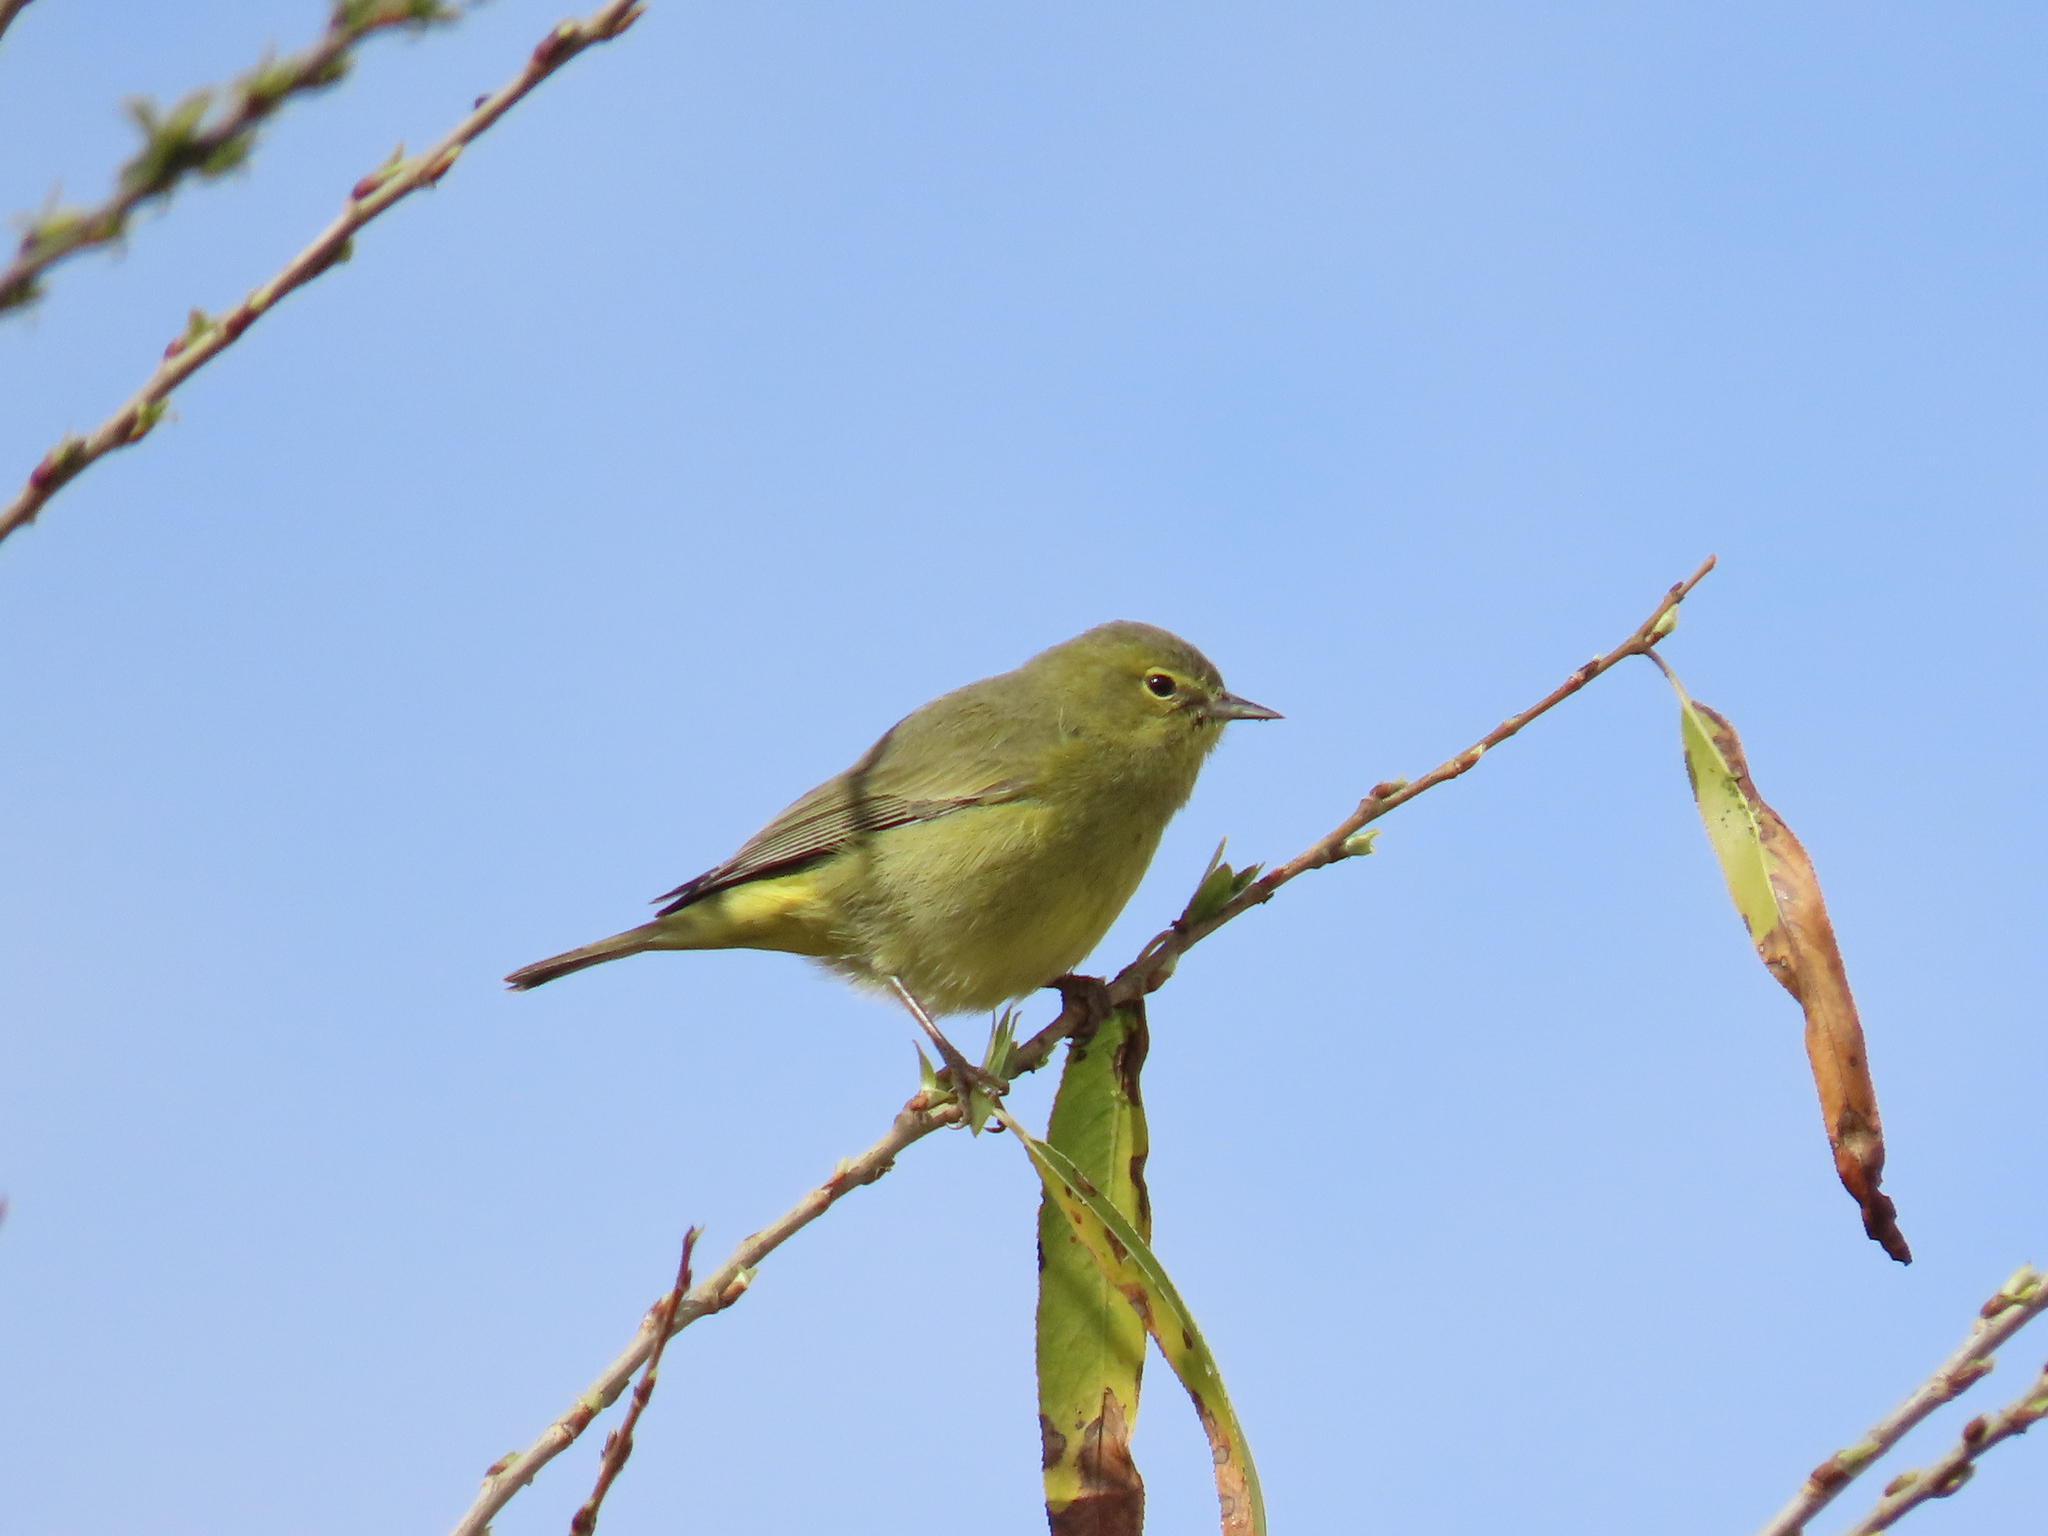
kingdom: Animalia
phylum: Chordata
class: Aves
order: Passeriformes
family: Parulidae
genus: Leiothlypis
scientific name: Leiothlypis celata
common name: Orange-crowned warbler
